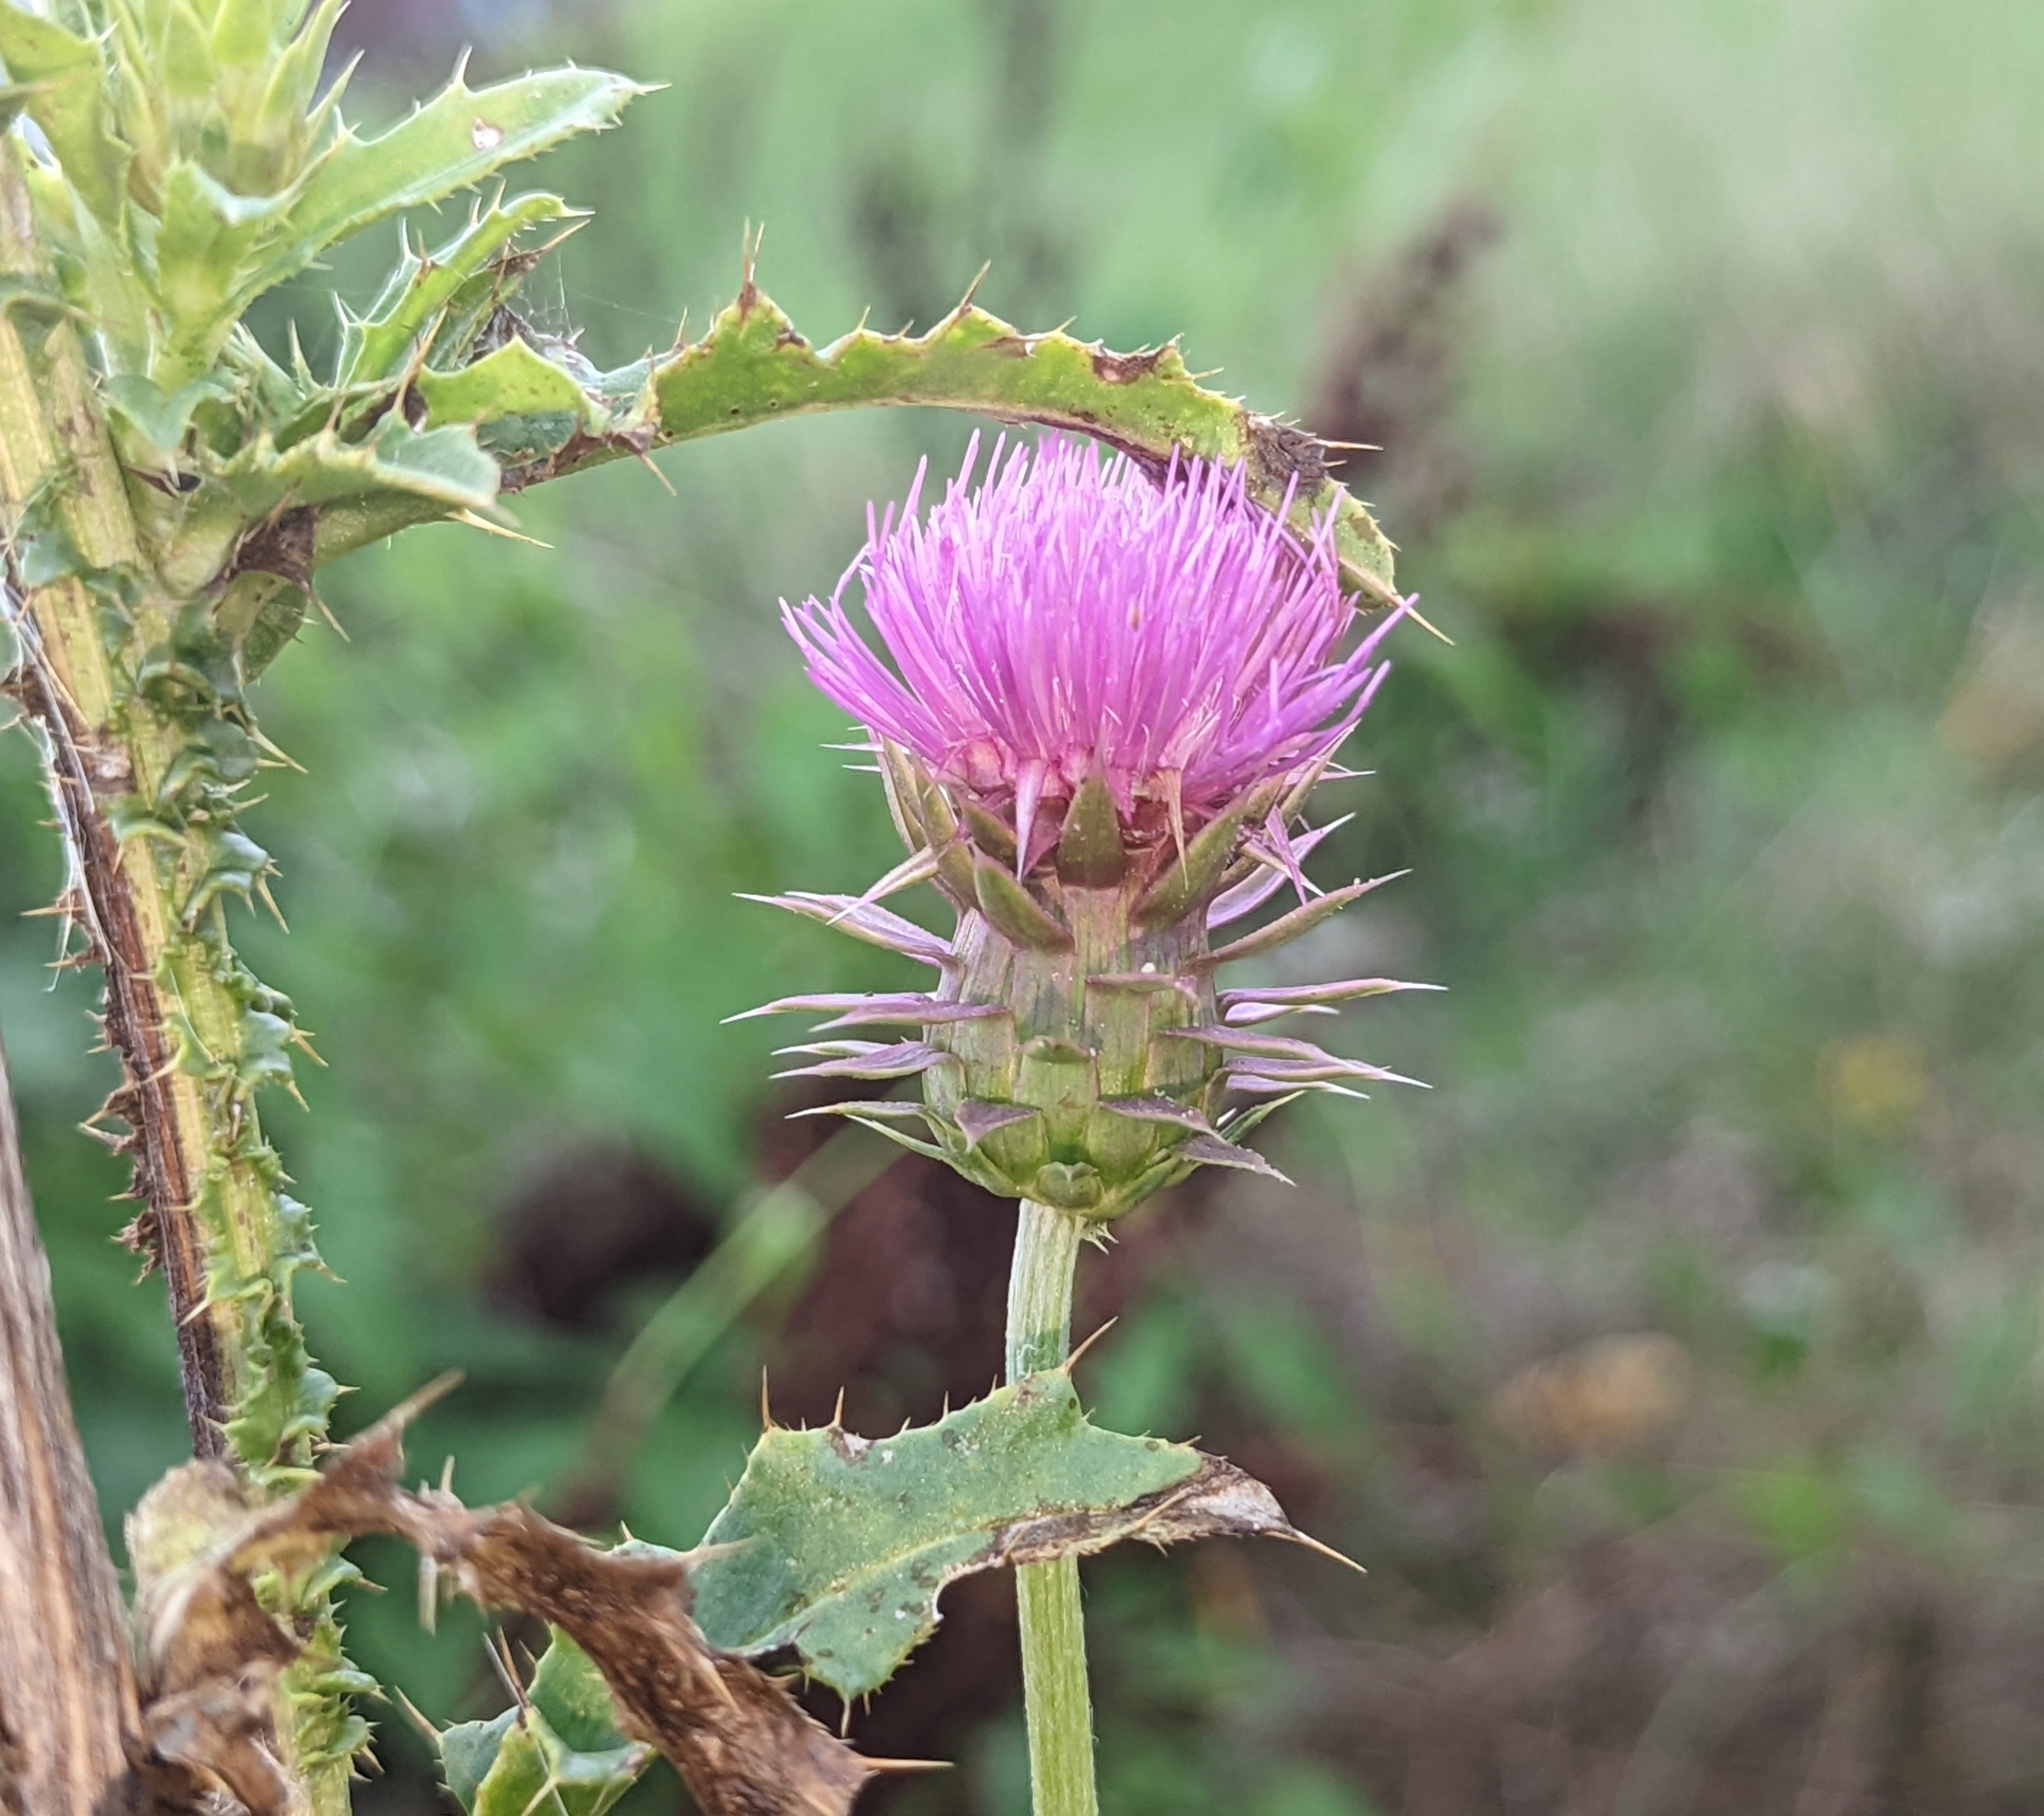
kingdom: Plantae
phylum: Tracheophyta
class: Magnoliopsida
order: Asterales
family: Asteraceae
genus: Carduus
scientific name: Carduus nutans
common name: Musk thistle
